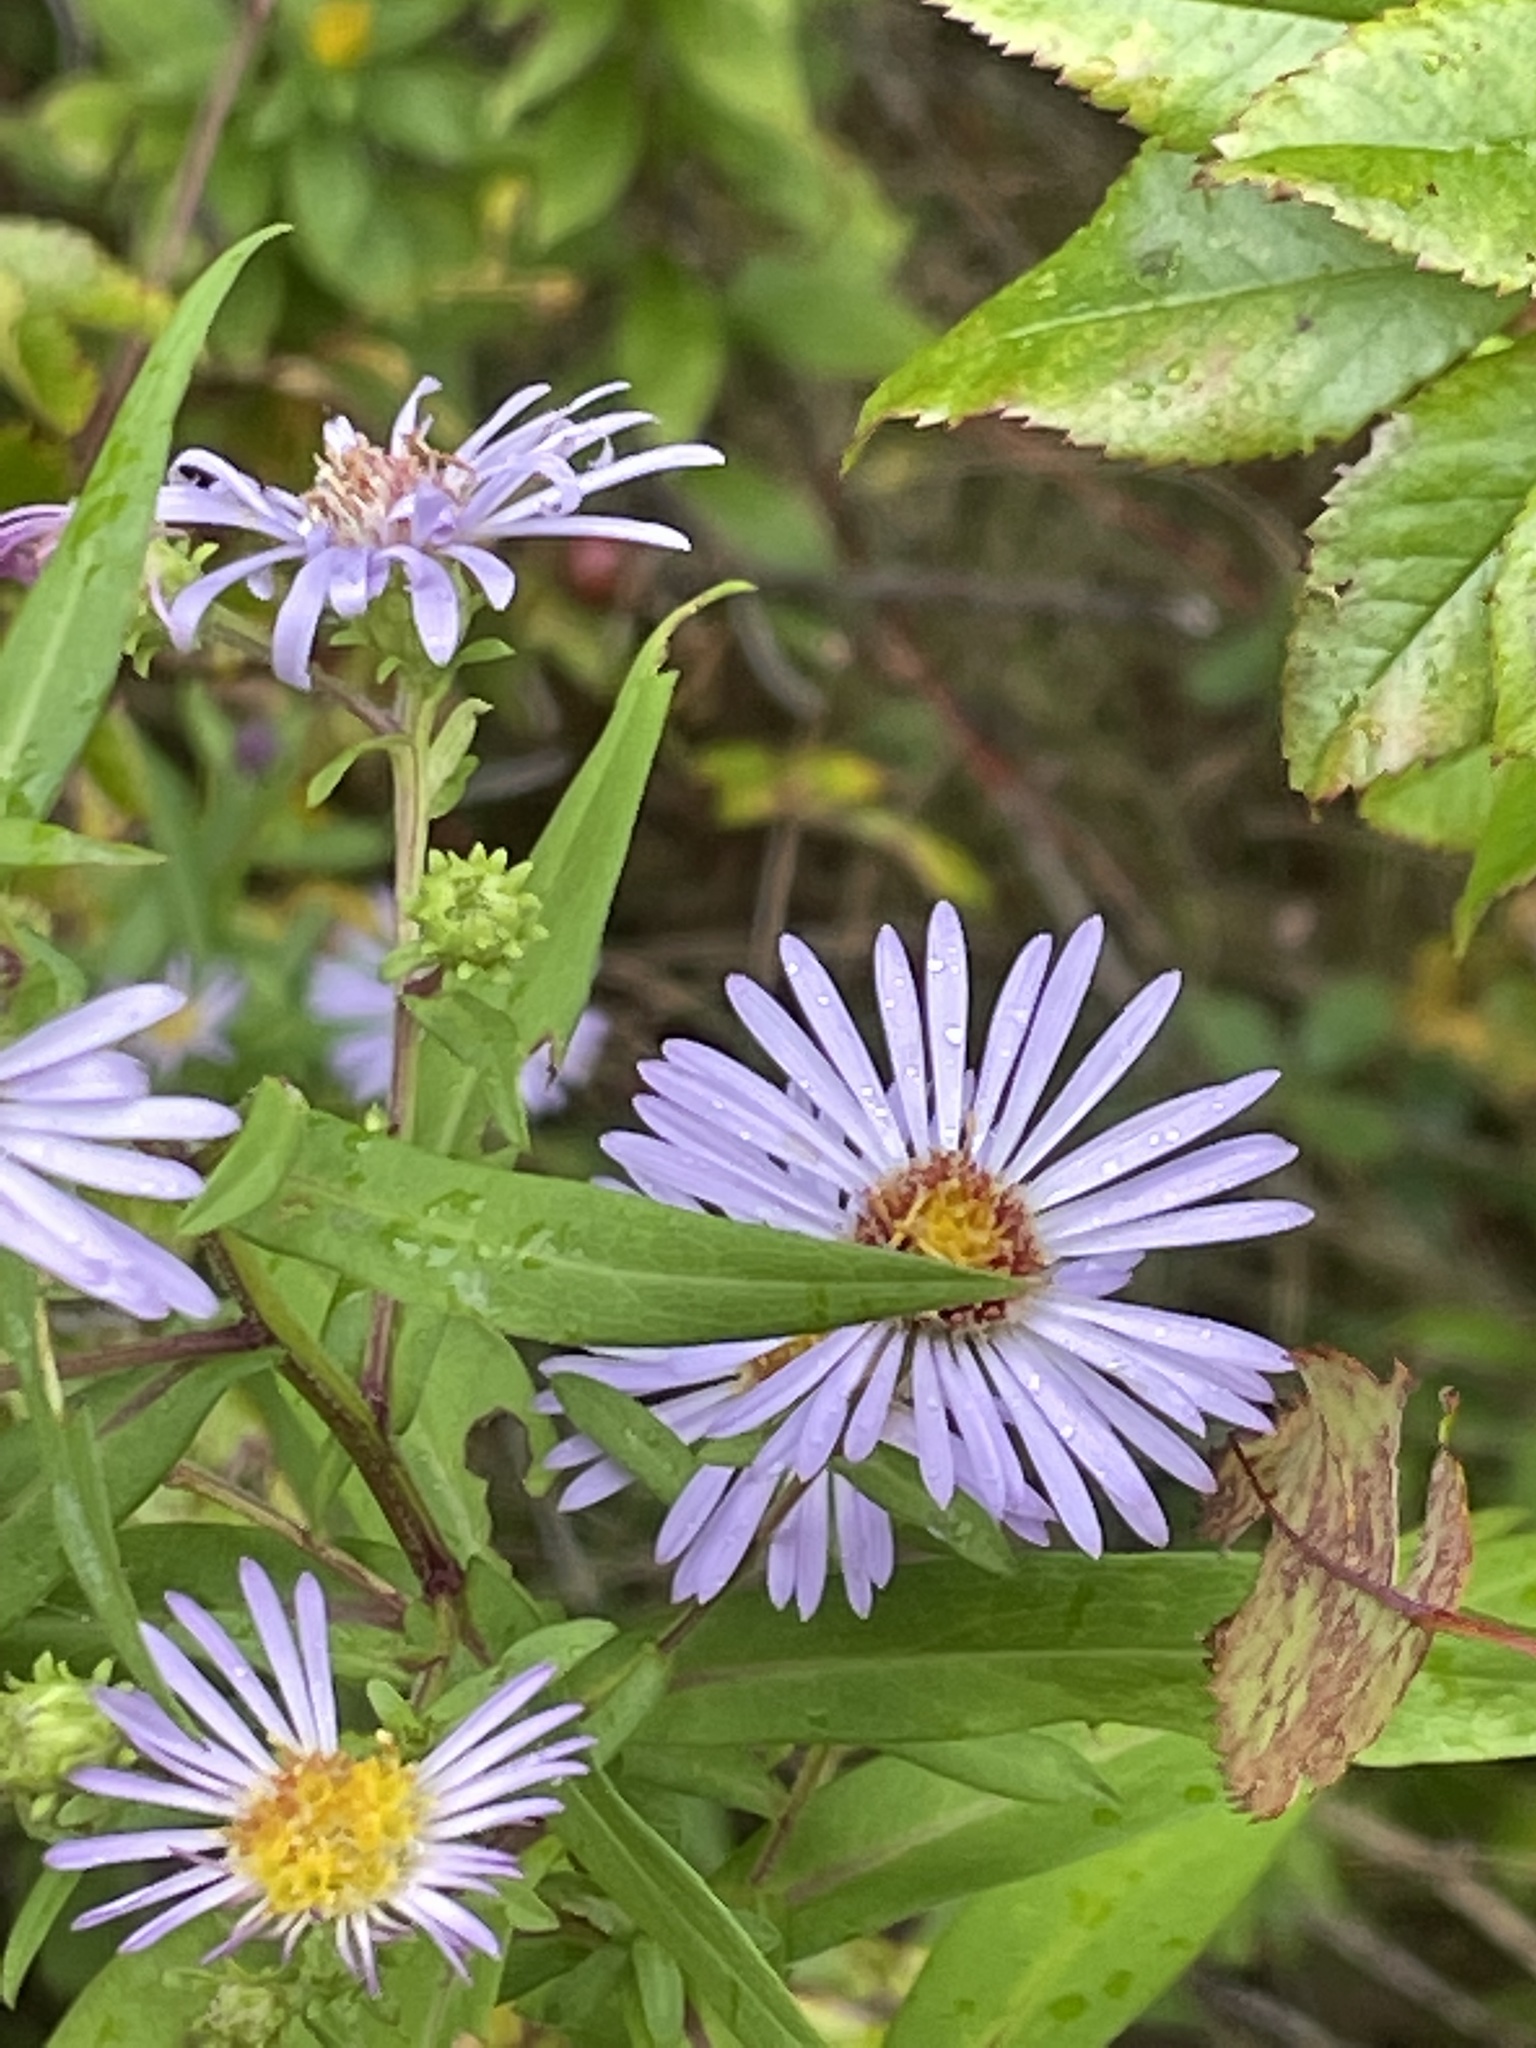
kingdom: Plantae
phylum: Tracheophyta
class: Magnoliopsida
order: Asterales
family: Asteraceae
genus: Symphyotrichum
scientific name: Symphyotrichum novi-belgii
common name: Michaelmas daisy
